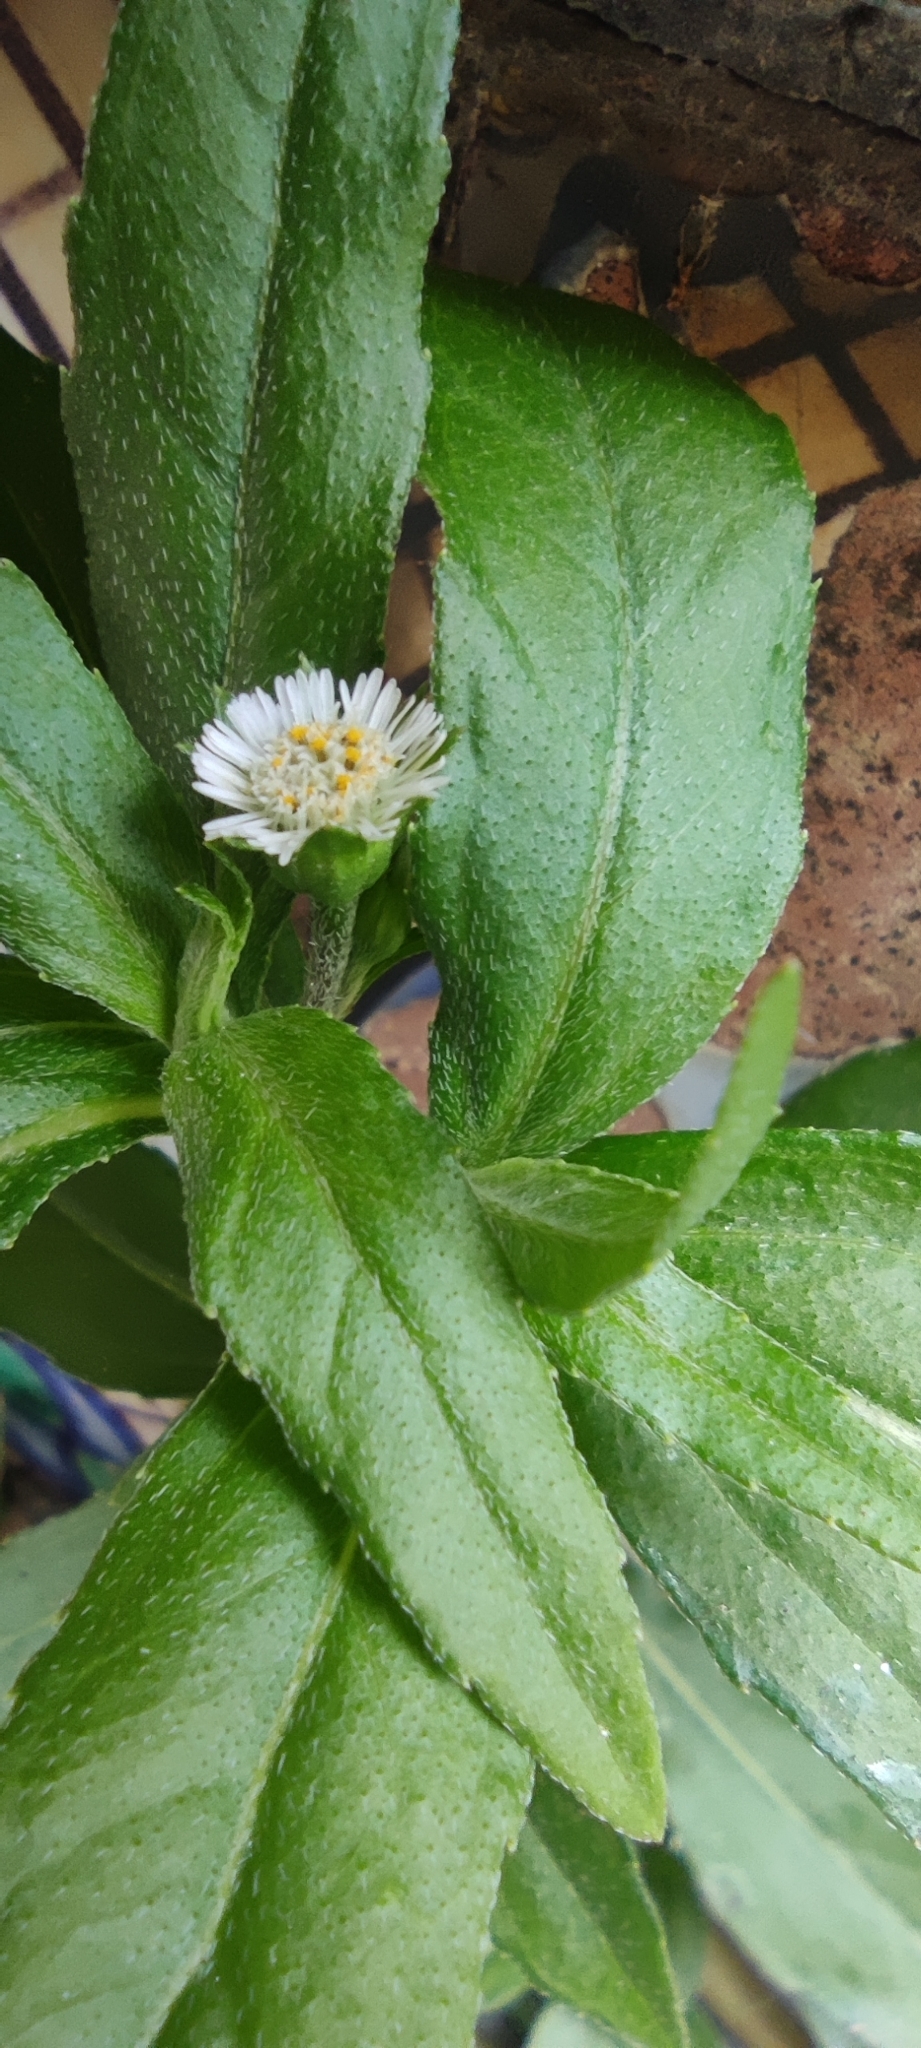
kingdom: Plantae
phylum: Tracheophyta
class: Magnoliopsida
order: Asterales
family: Asteraceae
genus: Eclipta
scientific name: Eclipta prostrata
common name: False daisy
